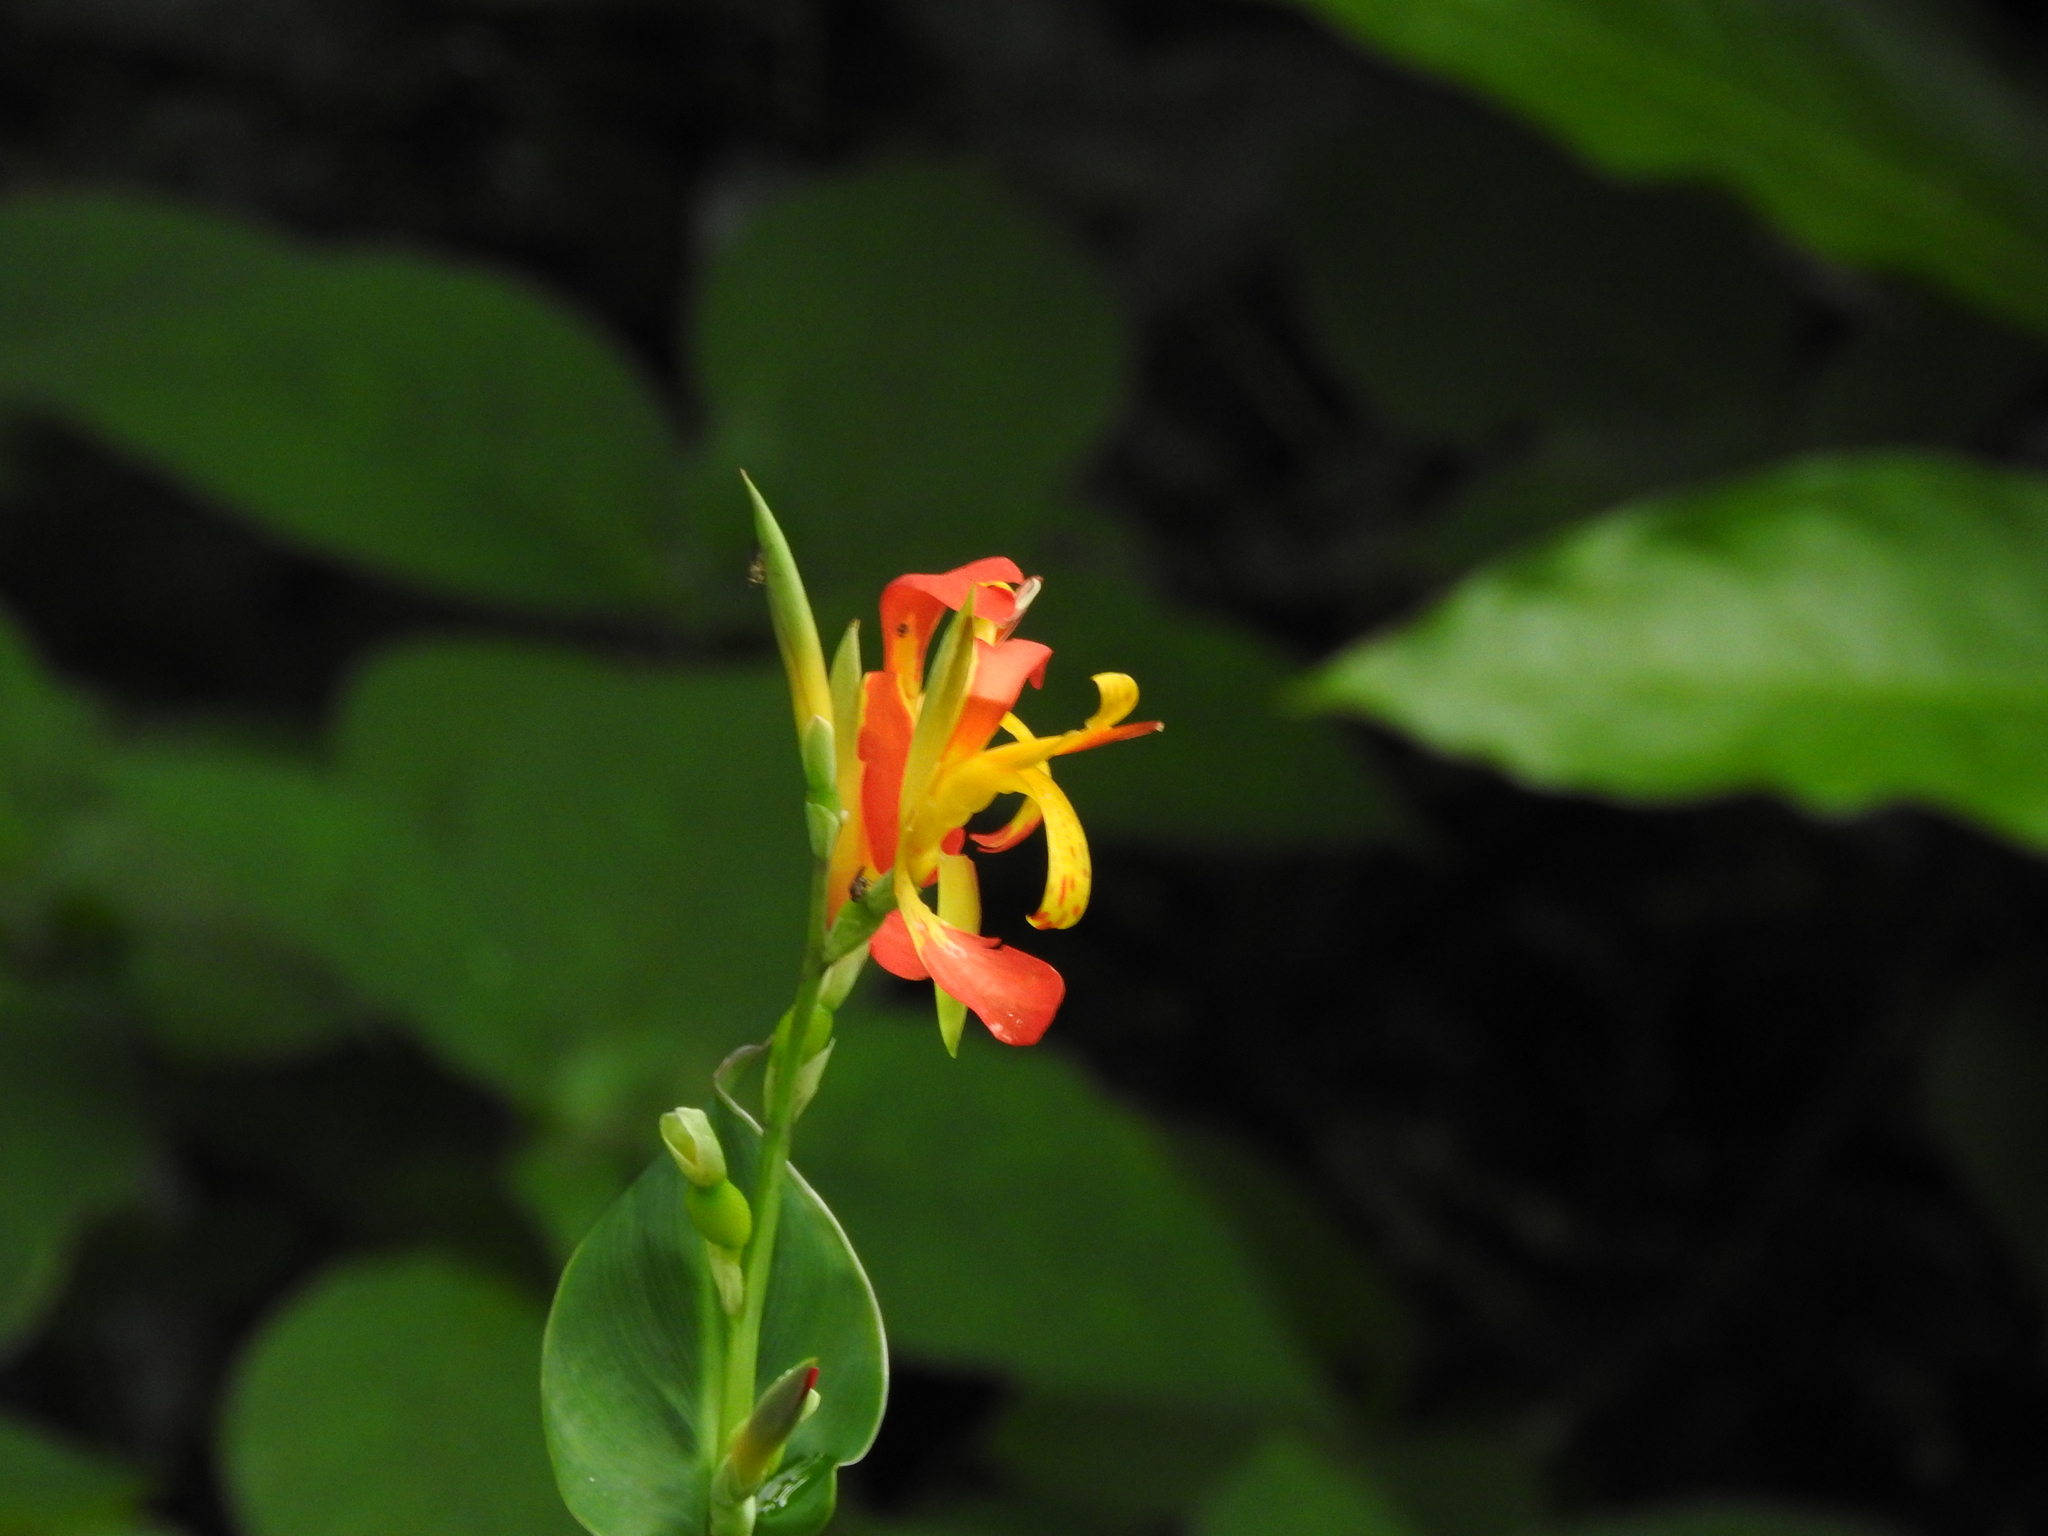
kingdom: Plantae
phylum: Tracheophyta
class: Liliopsida
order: Zingiberales
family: Cannaceae
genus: Canna
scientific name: Canna indica
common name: Indian shot
